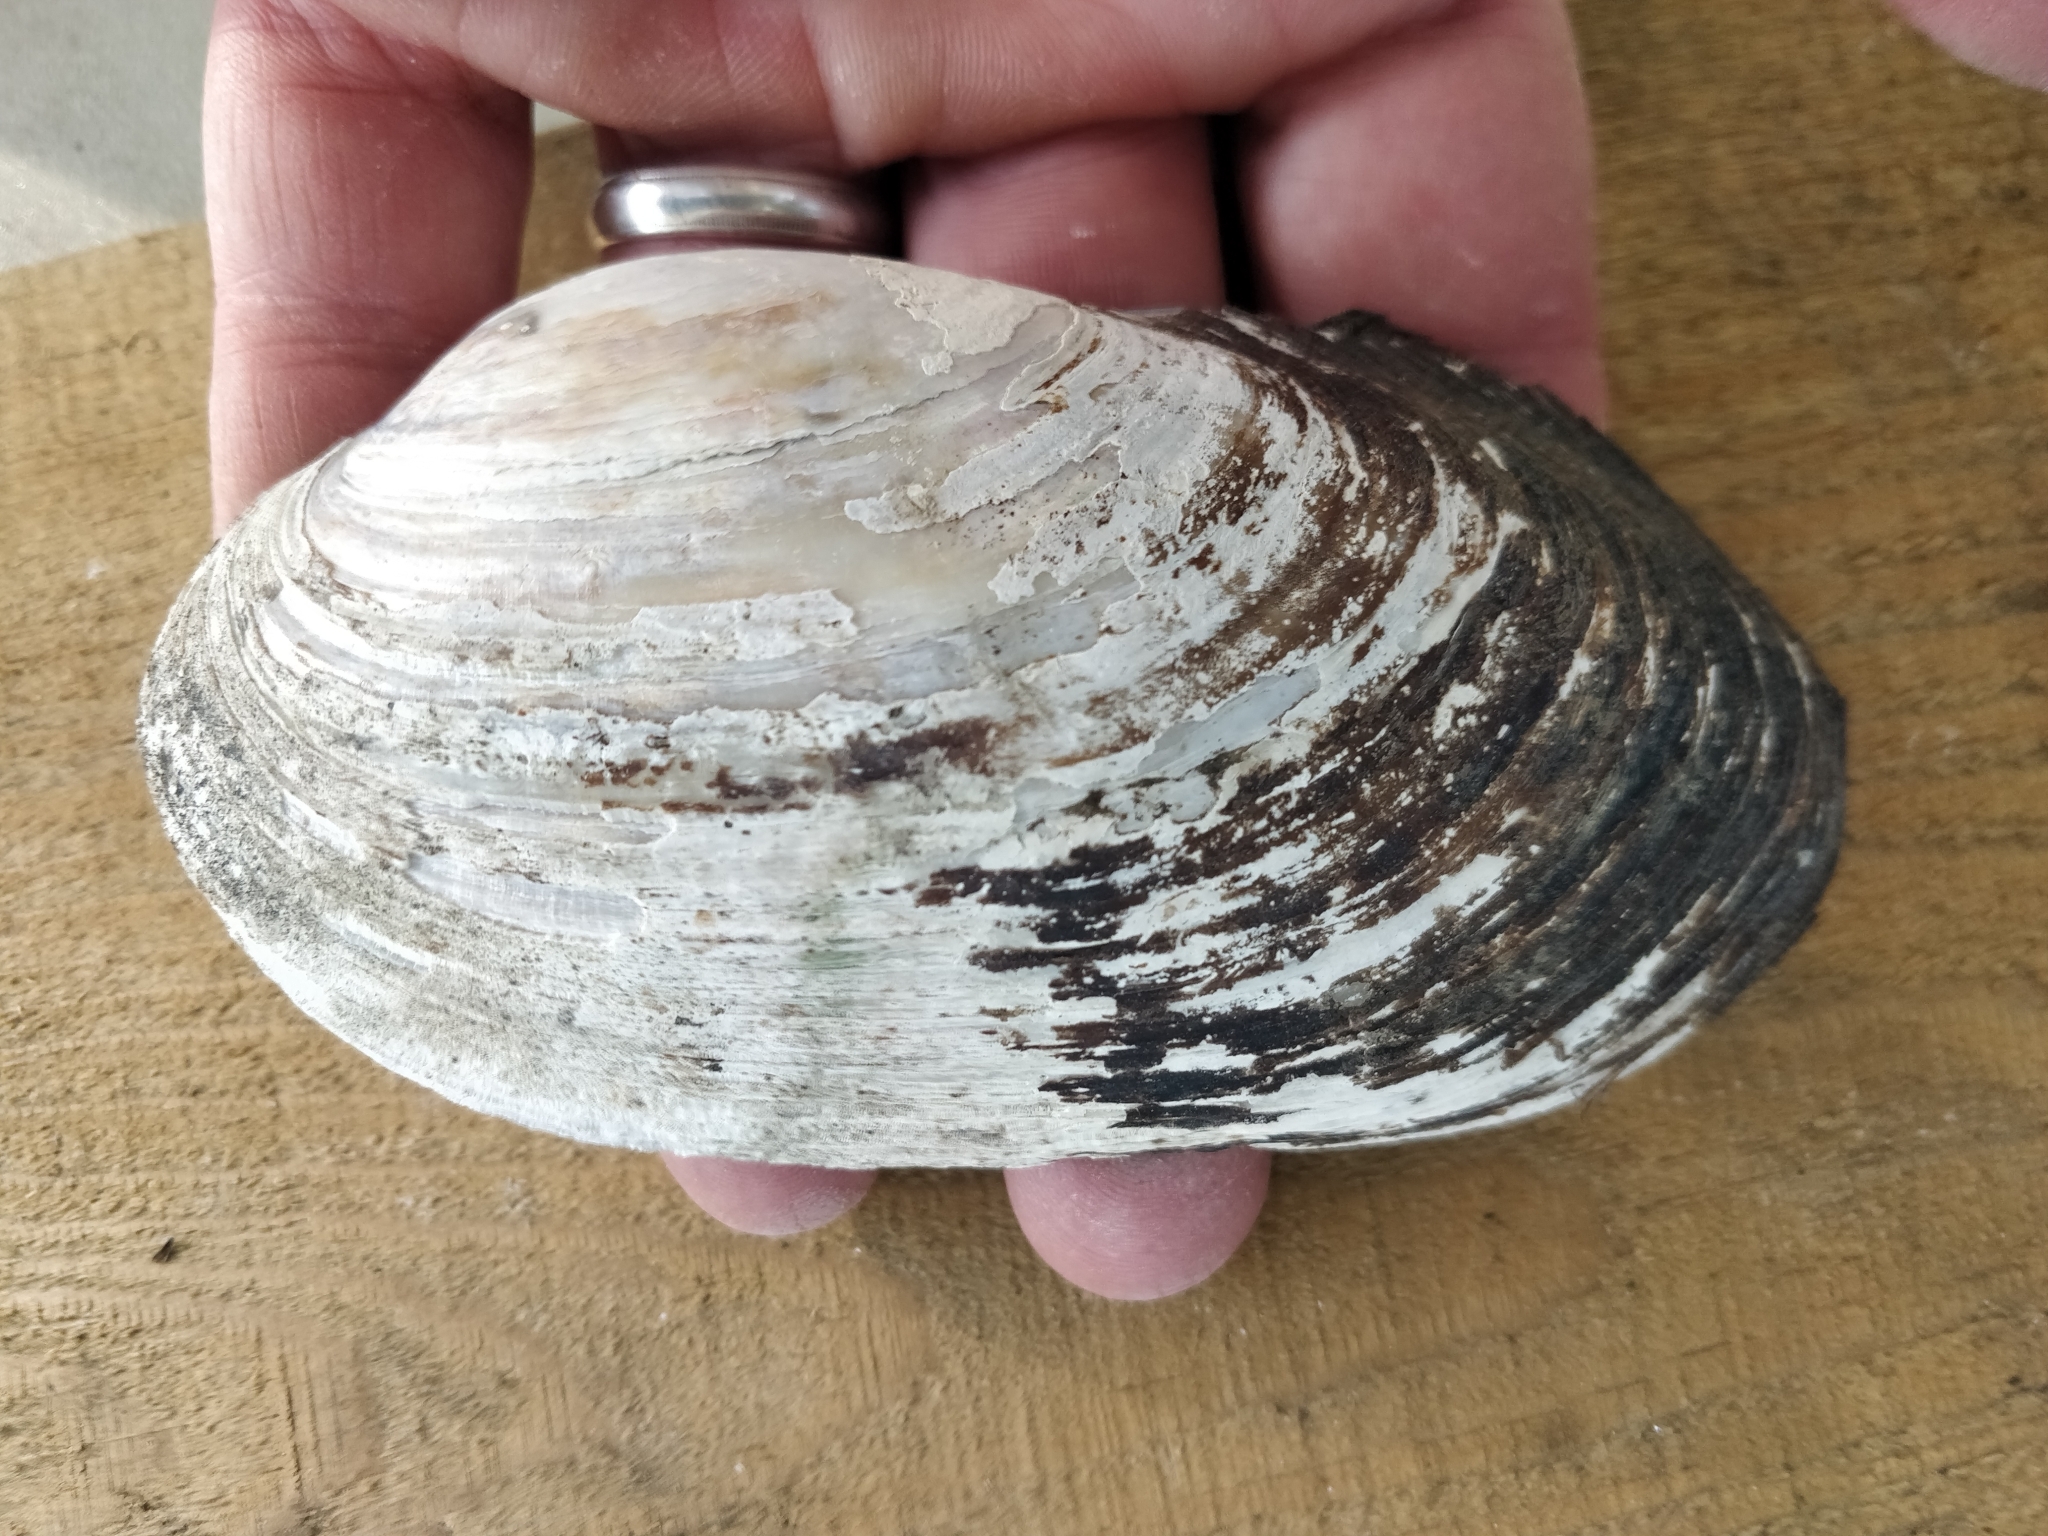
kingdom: Animalia
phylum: Mollusca
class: Bivalvia
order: Unionida
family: Unionidae
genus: Lampsilis
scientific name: Lampsilis siliquoidea
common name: Fatmucket
